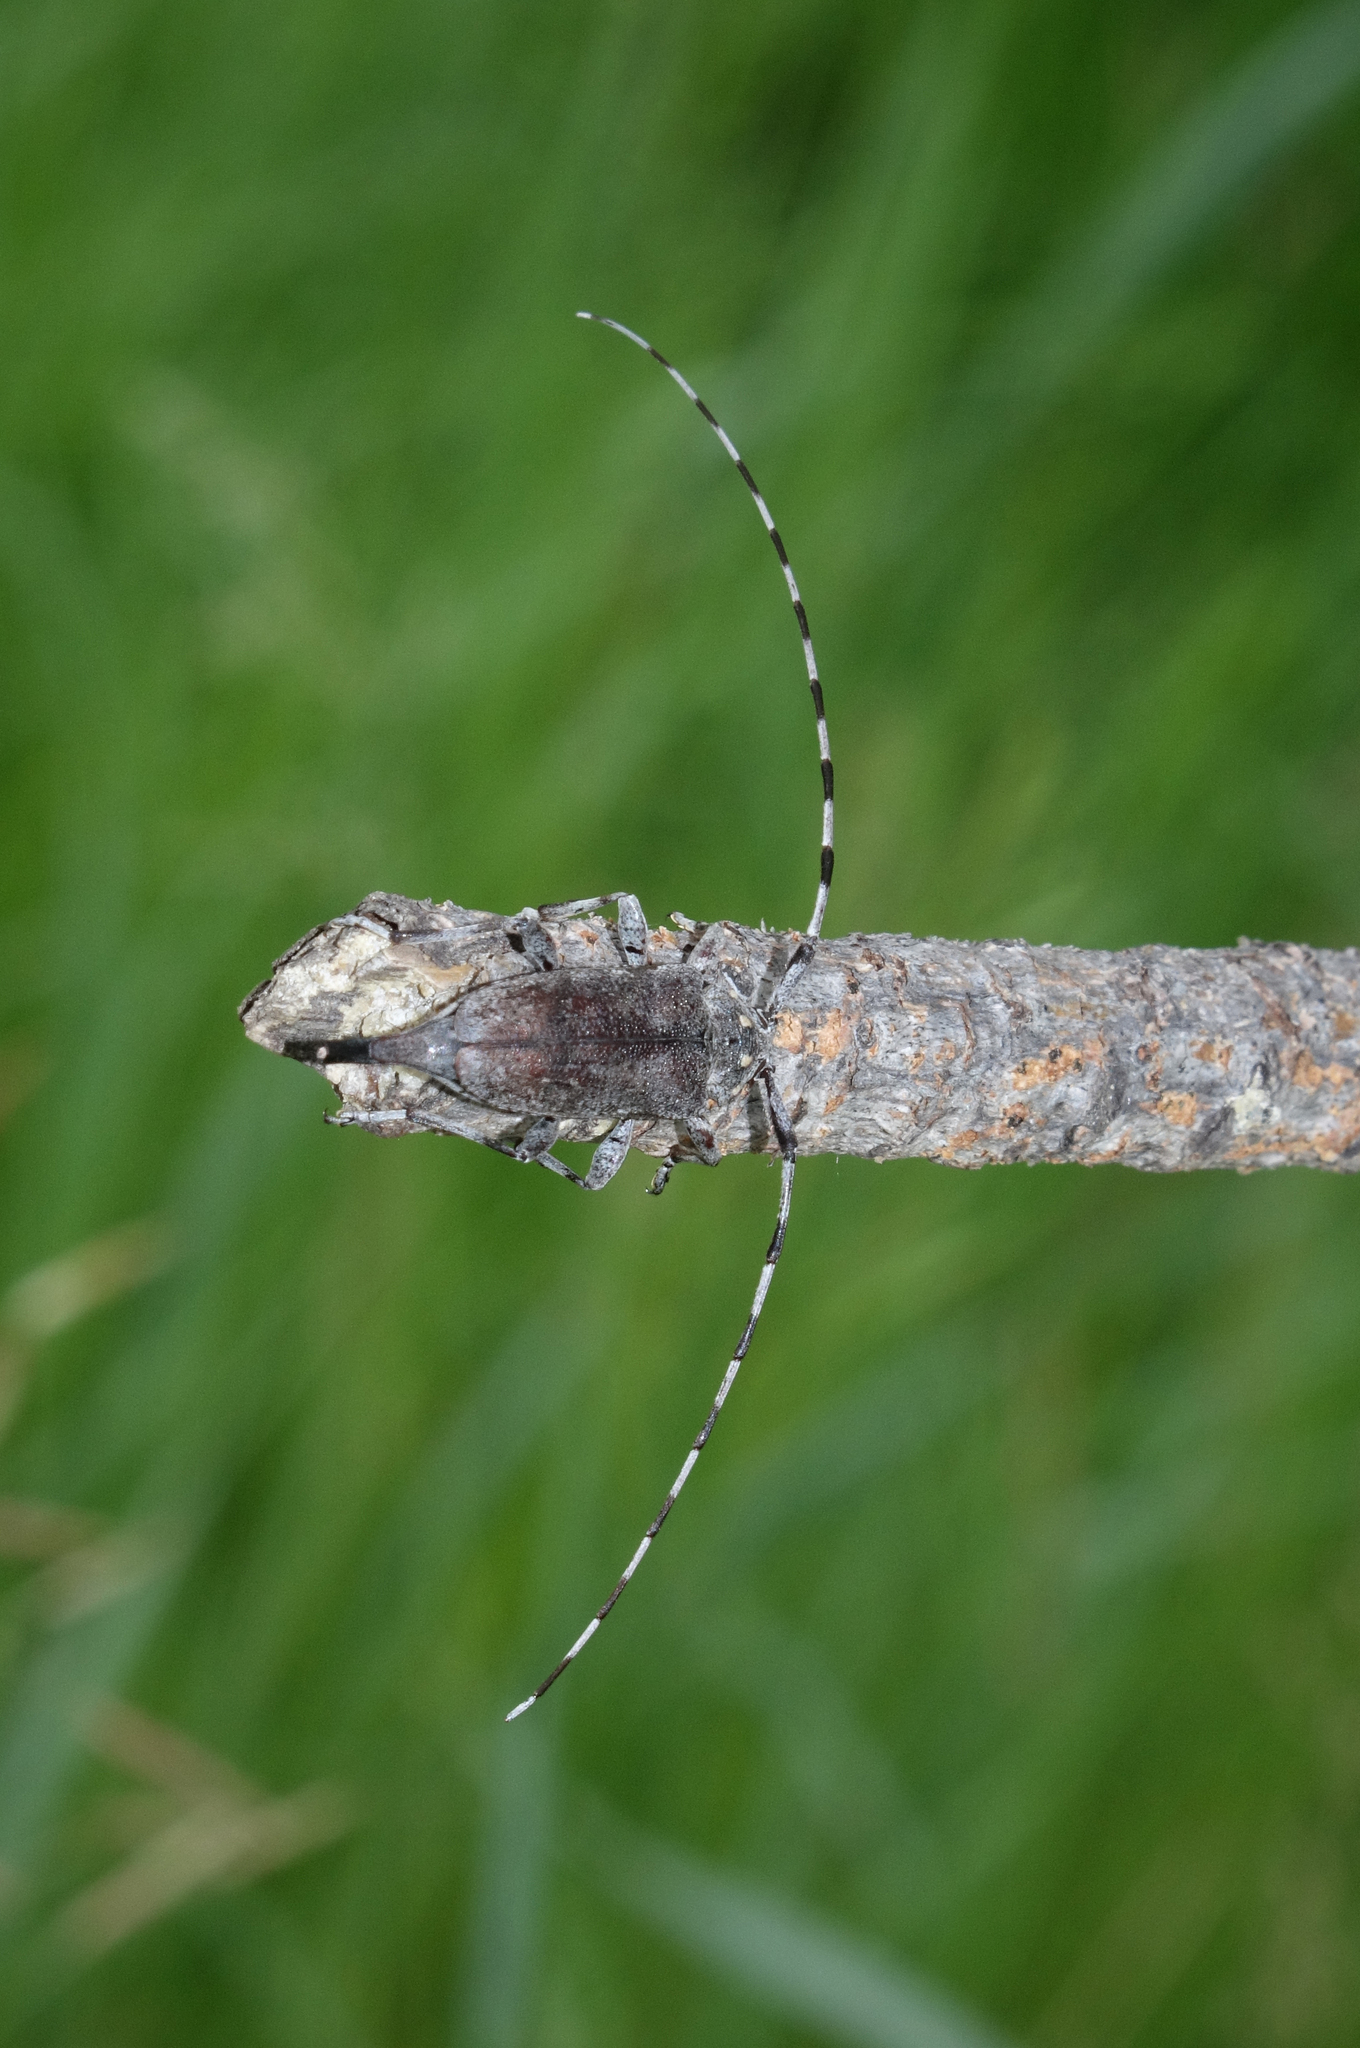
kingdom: Animalia
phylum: Arthropoda
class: Insecta
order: Coleoptera
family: Cerambycidae
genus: Acanthocinus
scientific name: Acanthocinus aedilis
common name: Timberman beetle
